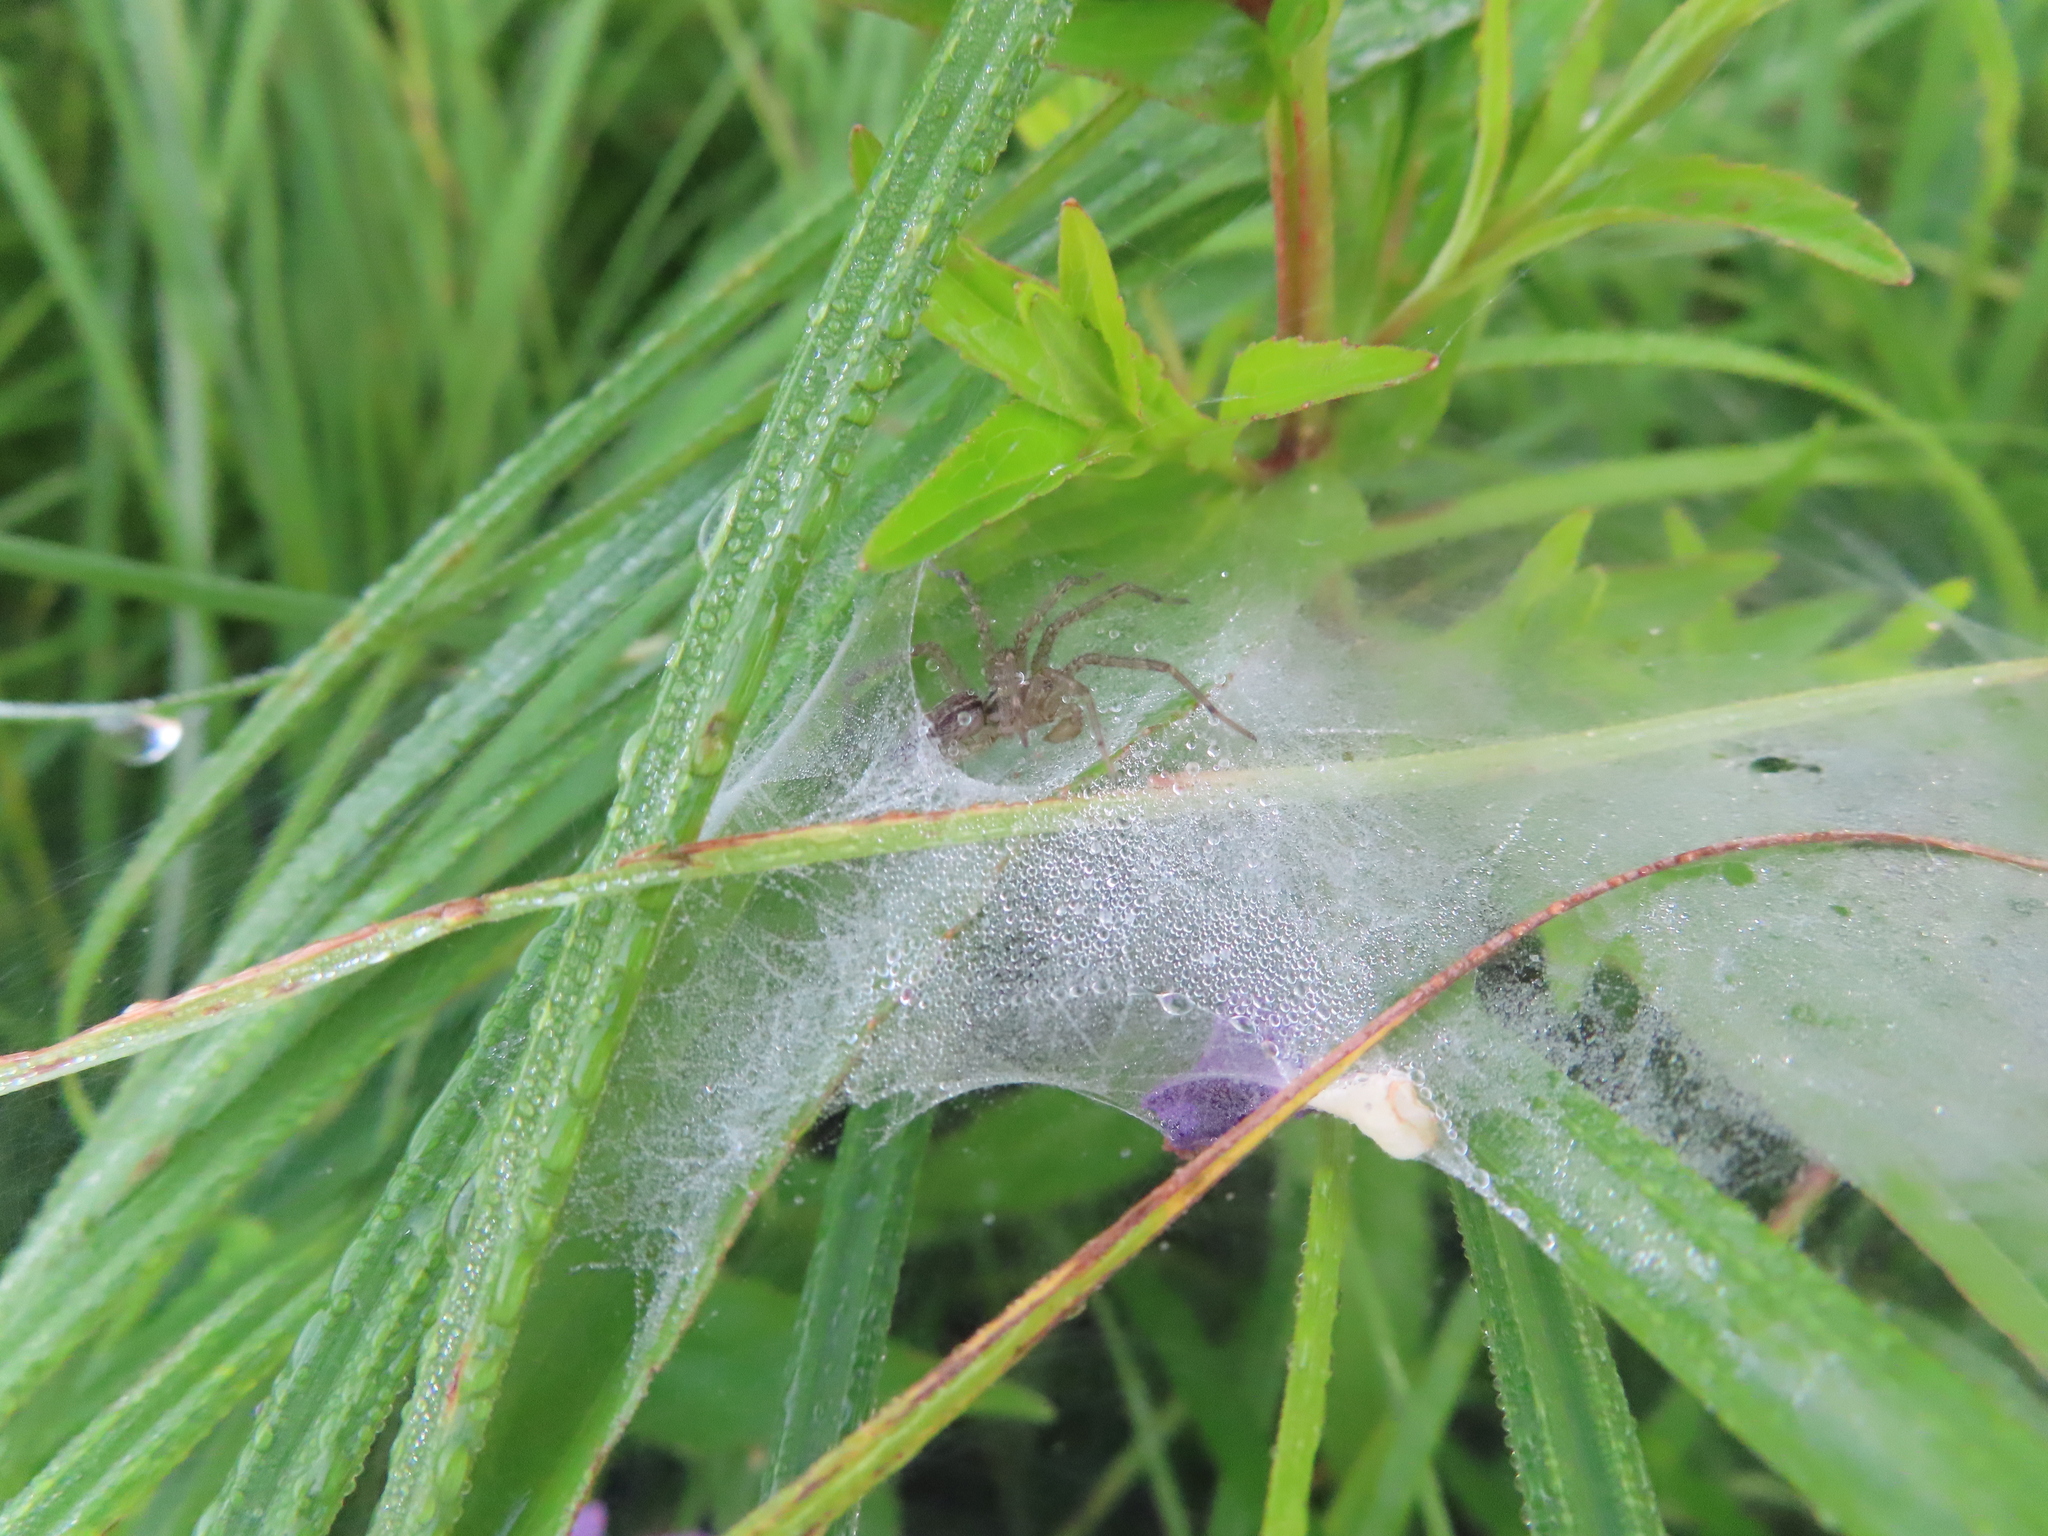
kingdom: Animalia
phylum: Arthropoda
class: Arachnida
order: Araneae
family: Agelenidae
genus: Agelenopsis
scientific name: Agelenopsis
